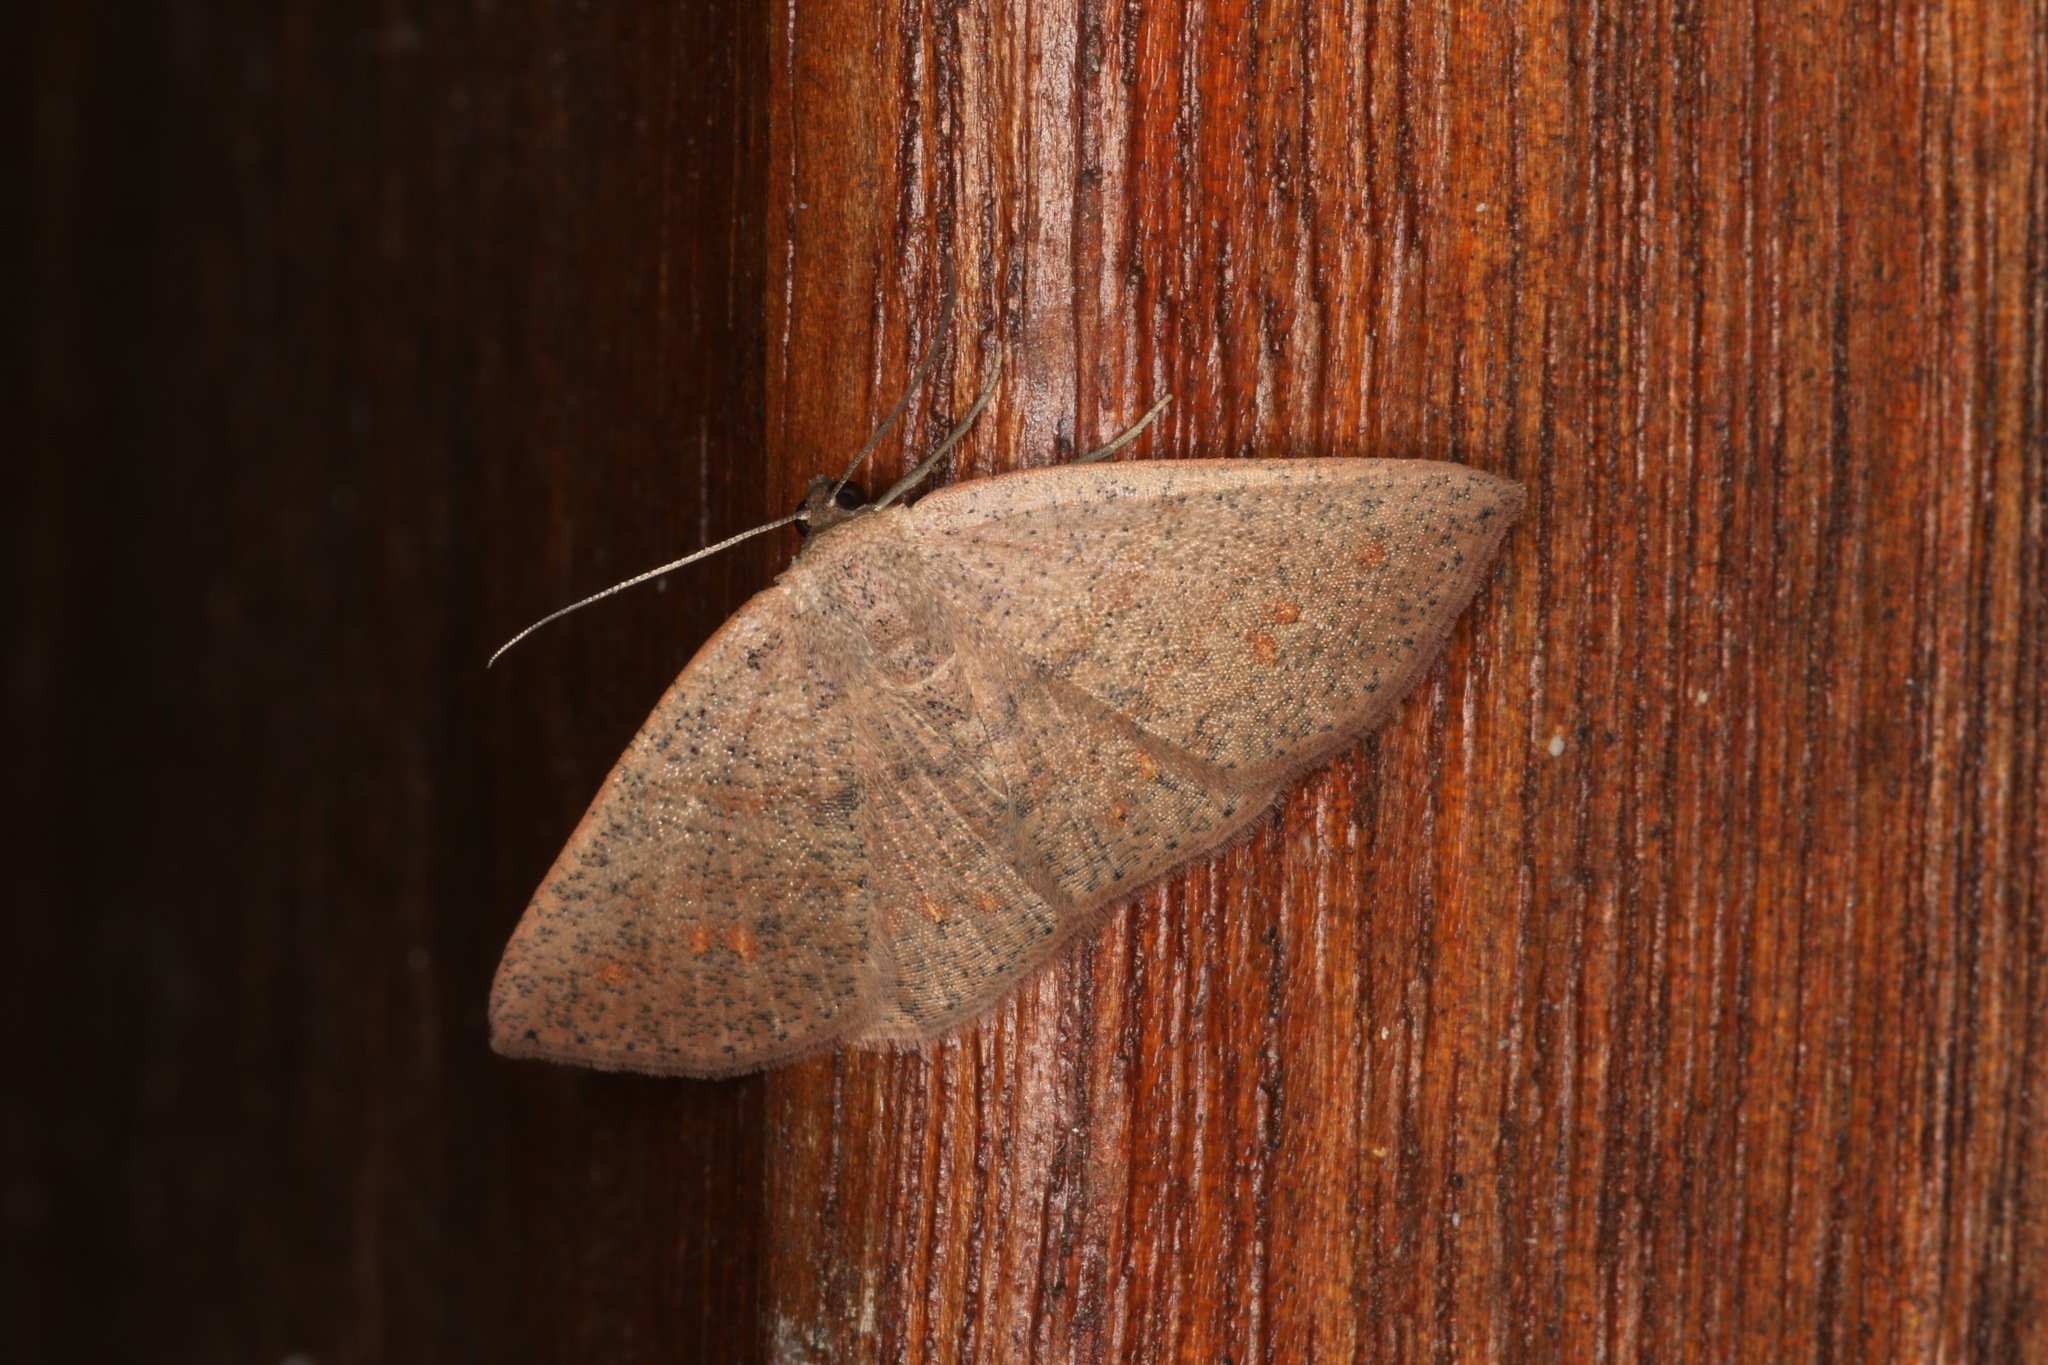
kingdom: Animalia
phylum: Arthropoda
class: Insecta
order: Lepidoptera
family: Geometridae
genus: Casbia
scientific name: Casbia rectaria
